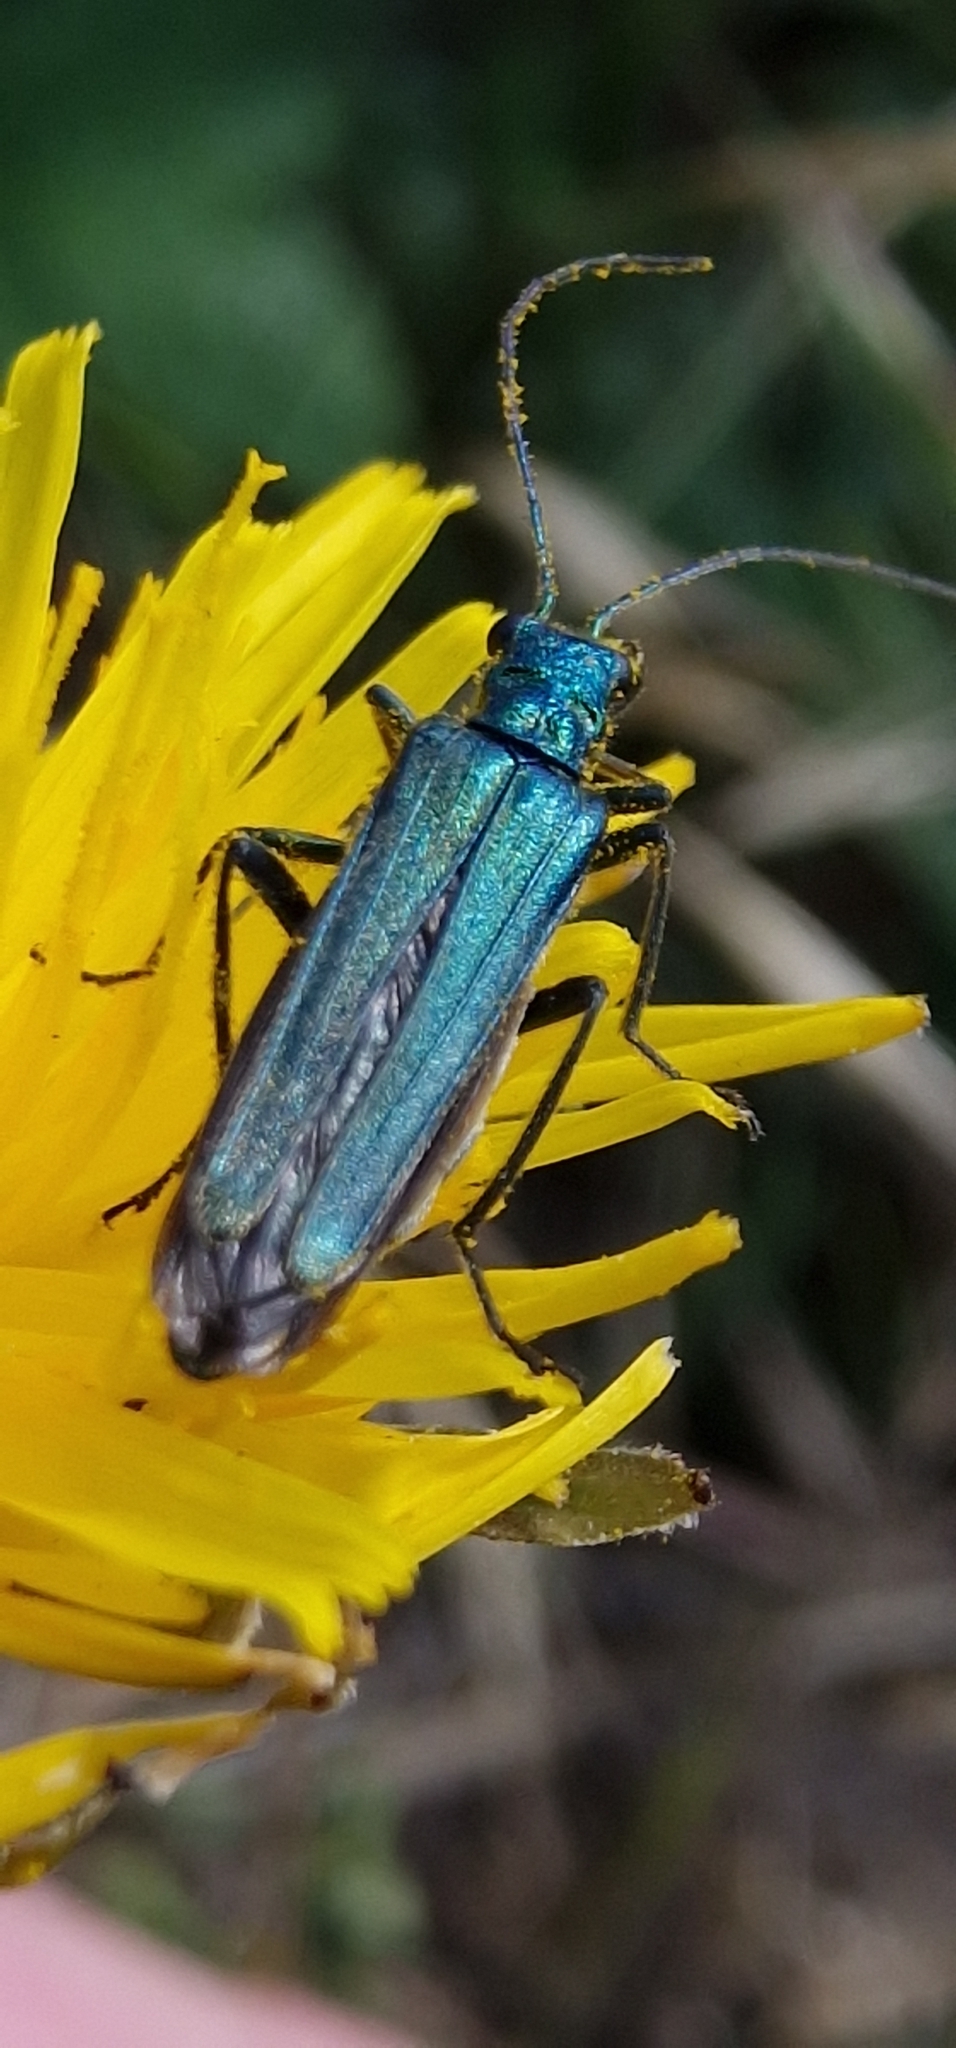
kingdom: Animalia
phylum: Arthropoda
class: Insecta
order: Coleoptera
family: Oedemeridae
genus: Oedemera
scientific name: Oedemera nobilis
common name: Swollen-thighed beetle
